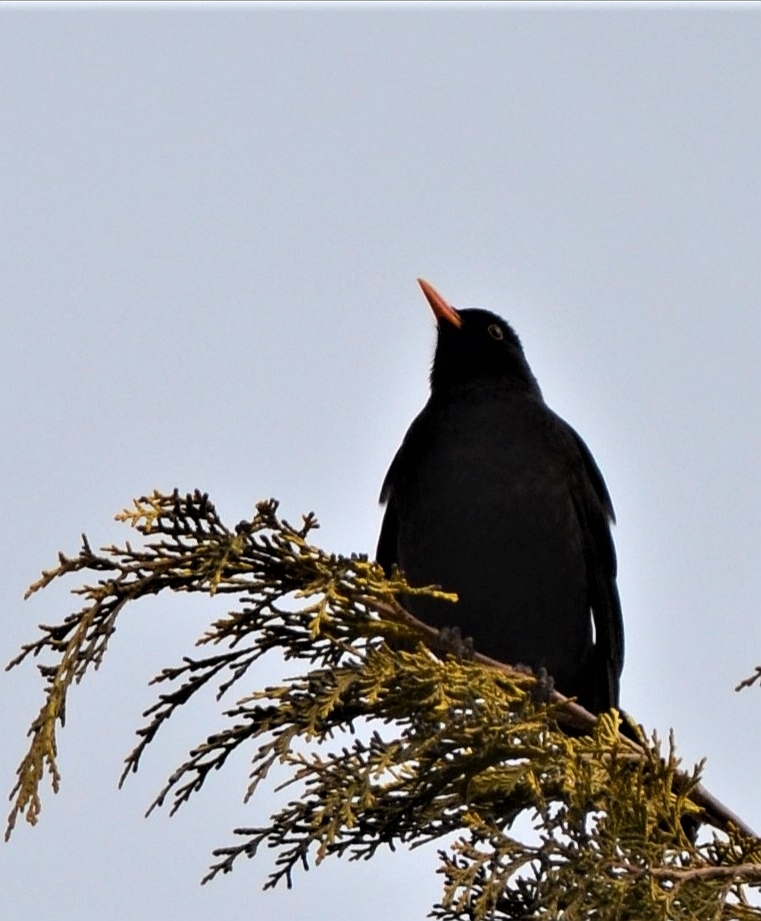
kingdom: Animalia
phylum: Chordata
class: Aves
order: Passeriformes
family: Turdidae
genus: Turdus
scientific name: Turdus merula
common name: Common blackbird
